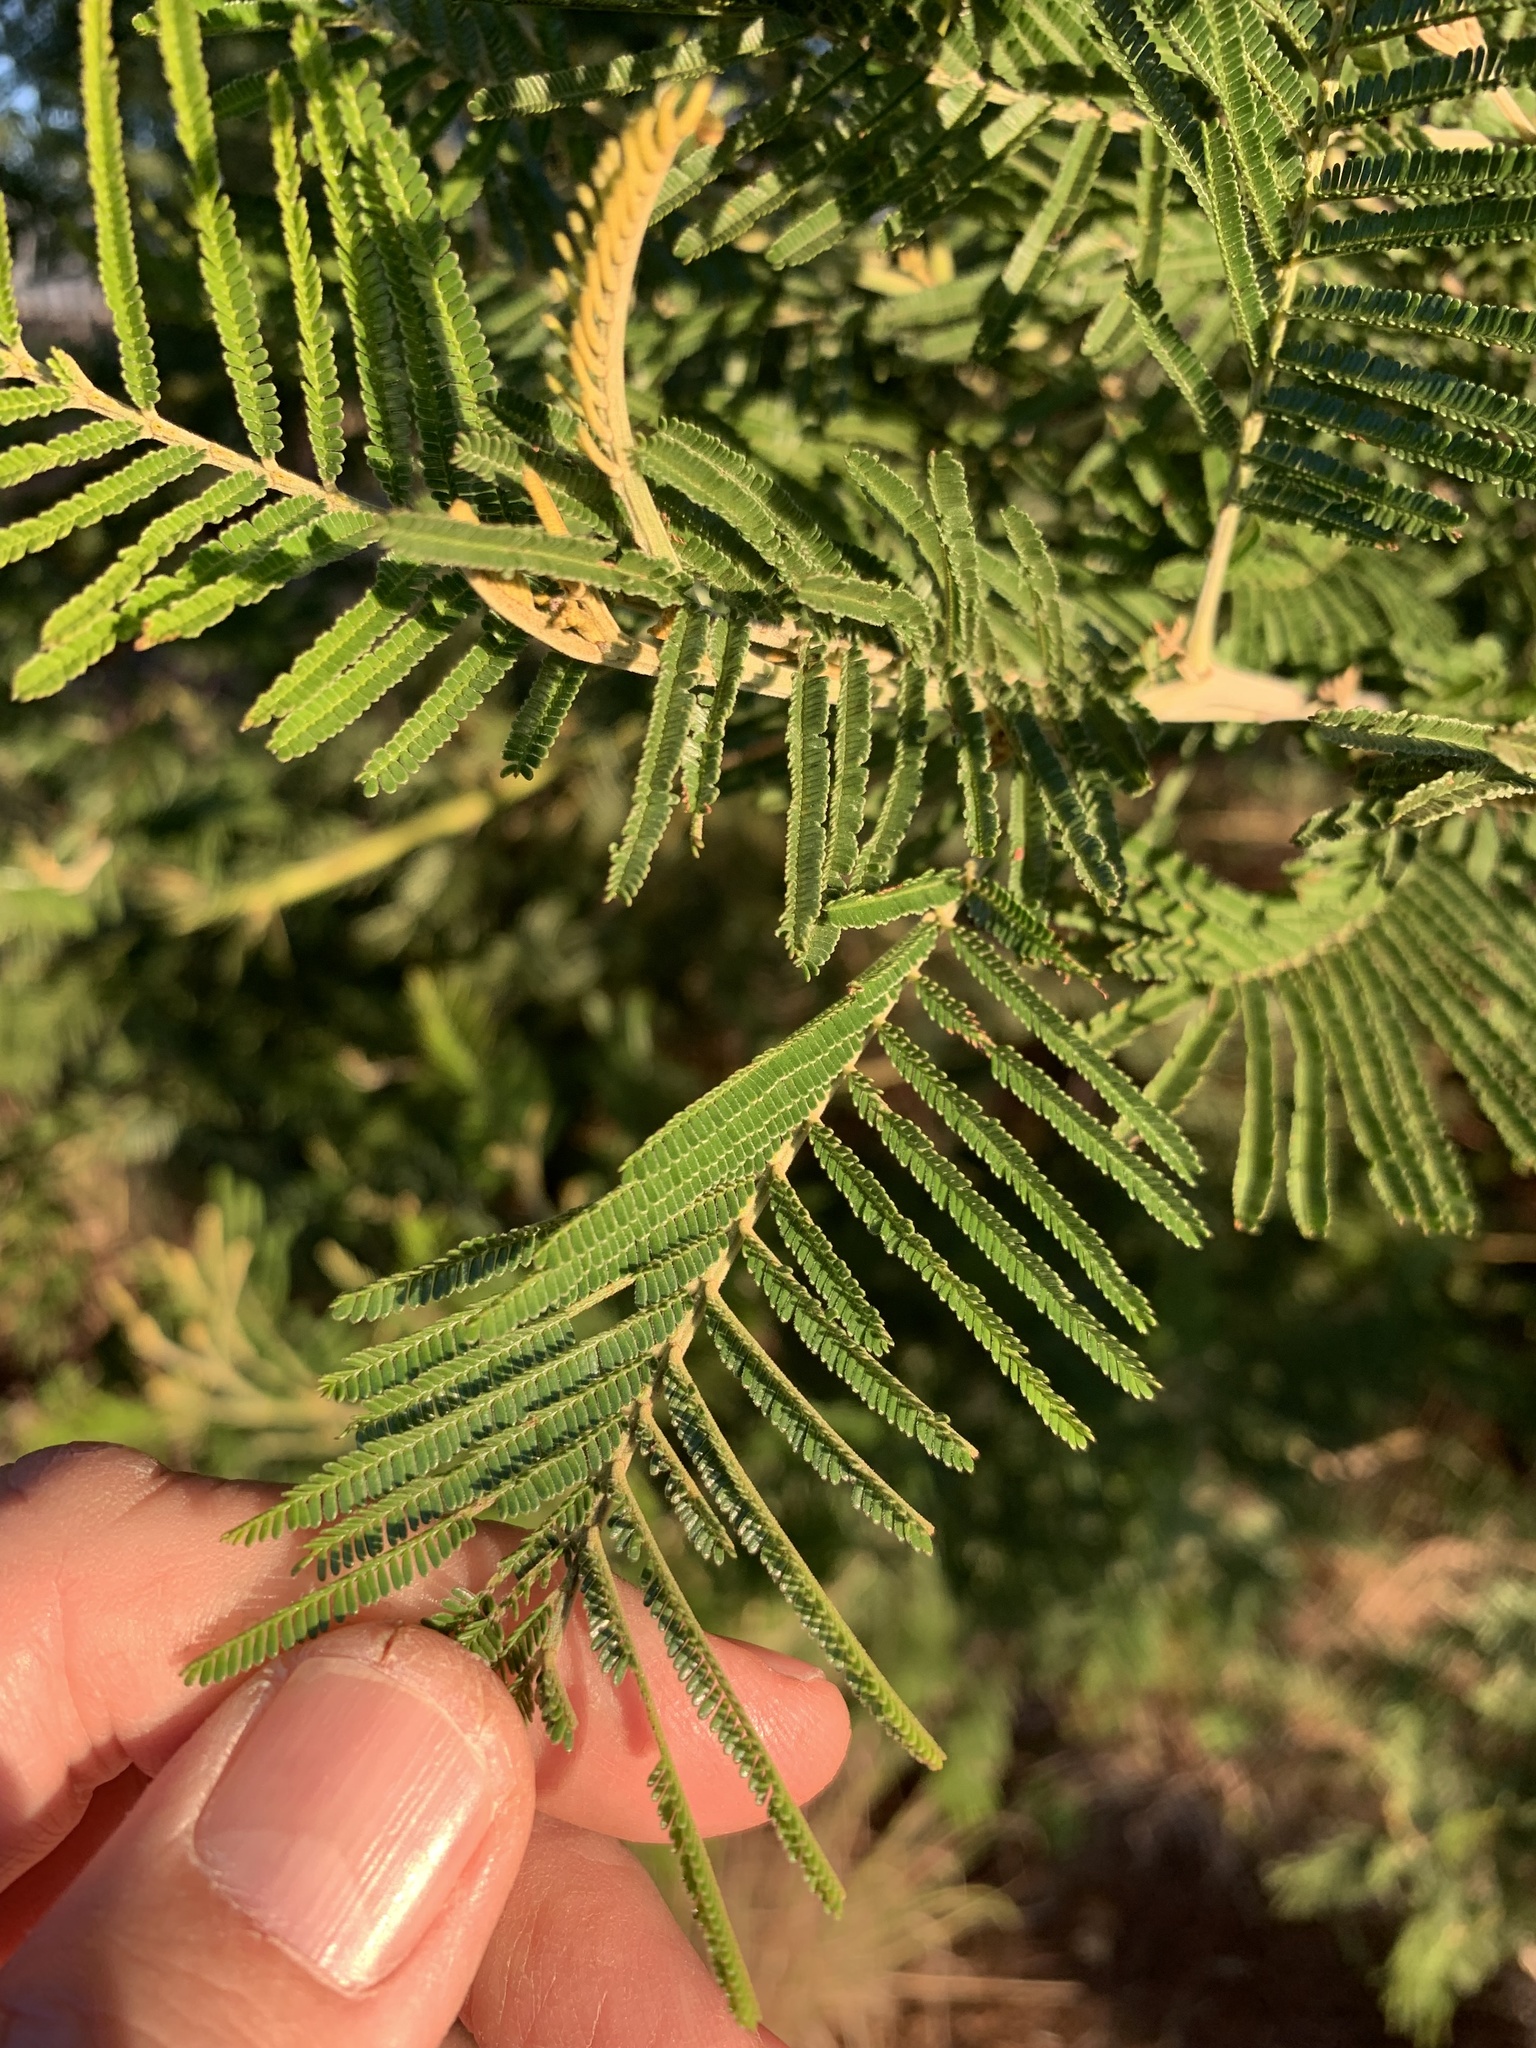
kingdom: Plantae
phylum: Tracheophyta
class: Magnoliopsida
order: Fabales
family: Fabaceae
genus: Acacia
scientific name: Acacia mearnsii
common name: Black wattle
